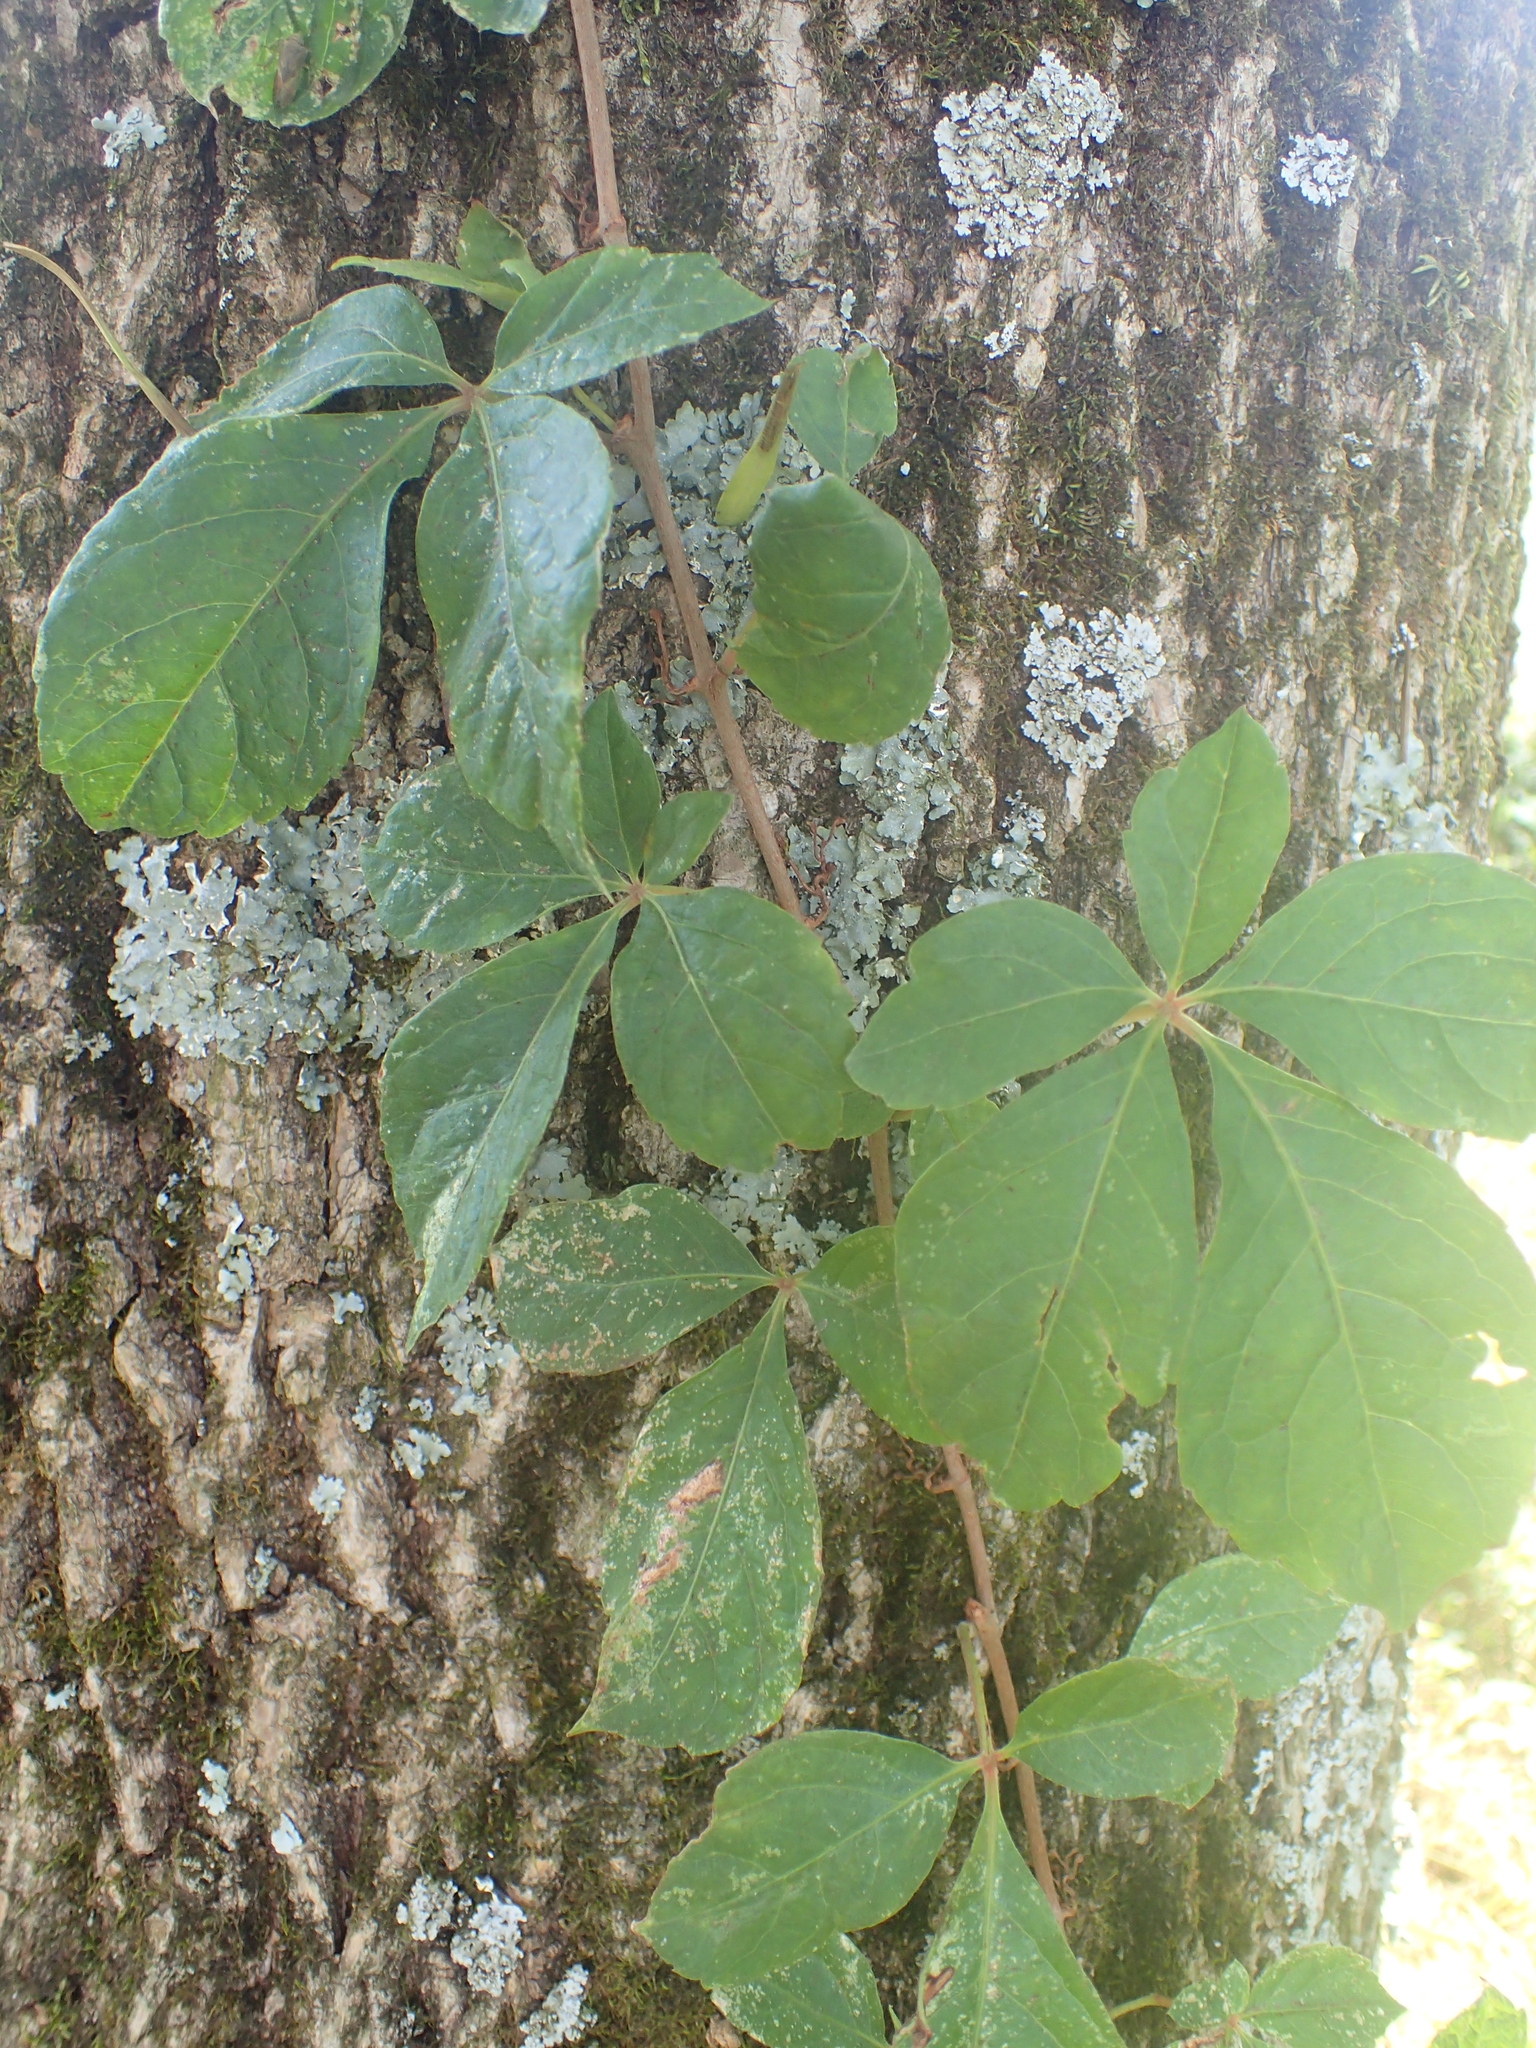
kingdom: Plantae
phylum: Tracheophyta
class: Magnoliopsida
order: Vitales
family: Vitaceae
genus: Parthenocissus
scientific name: Parthenocissus quinquefolia
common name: Virginia-creeper
